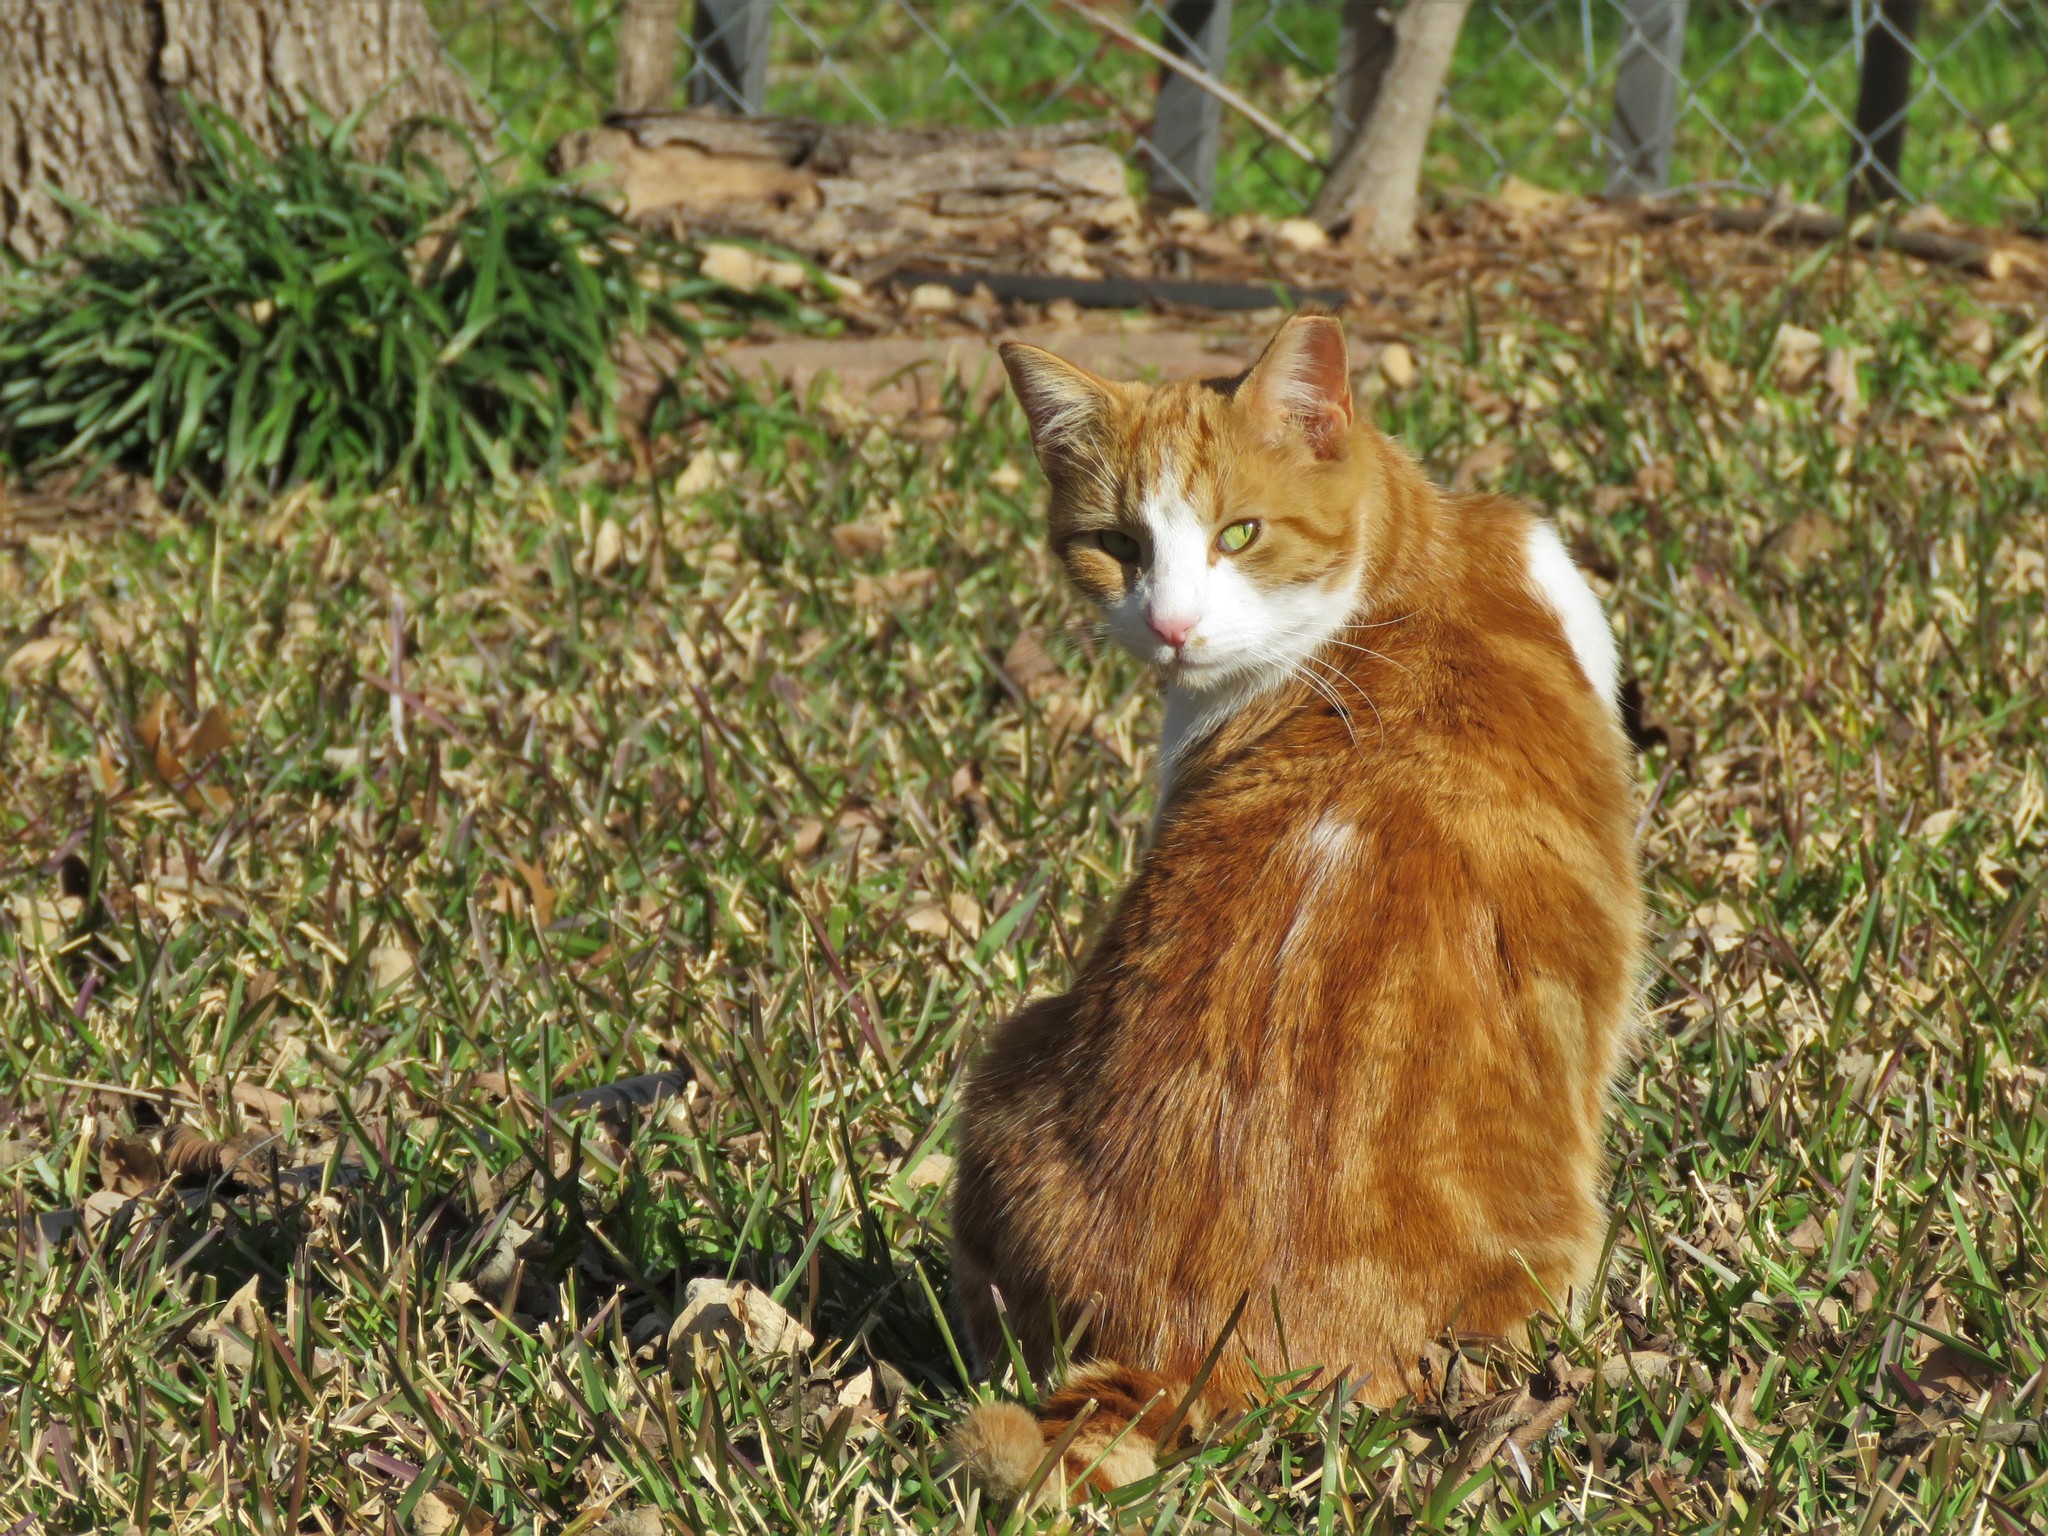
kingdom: Animalia
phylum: Chordata
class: Mammalia
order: Carnivora
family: Felidae
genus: Felis
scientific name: Felis catus
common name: Domestic cat
